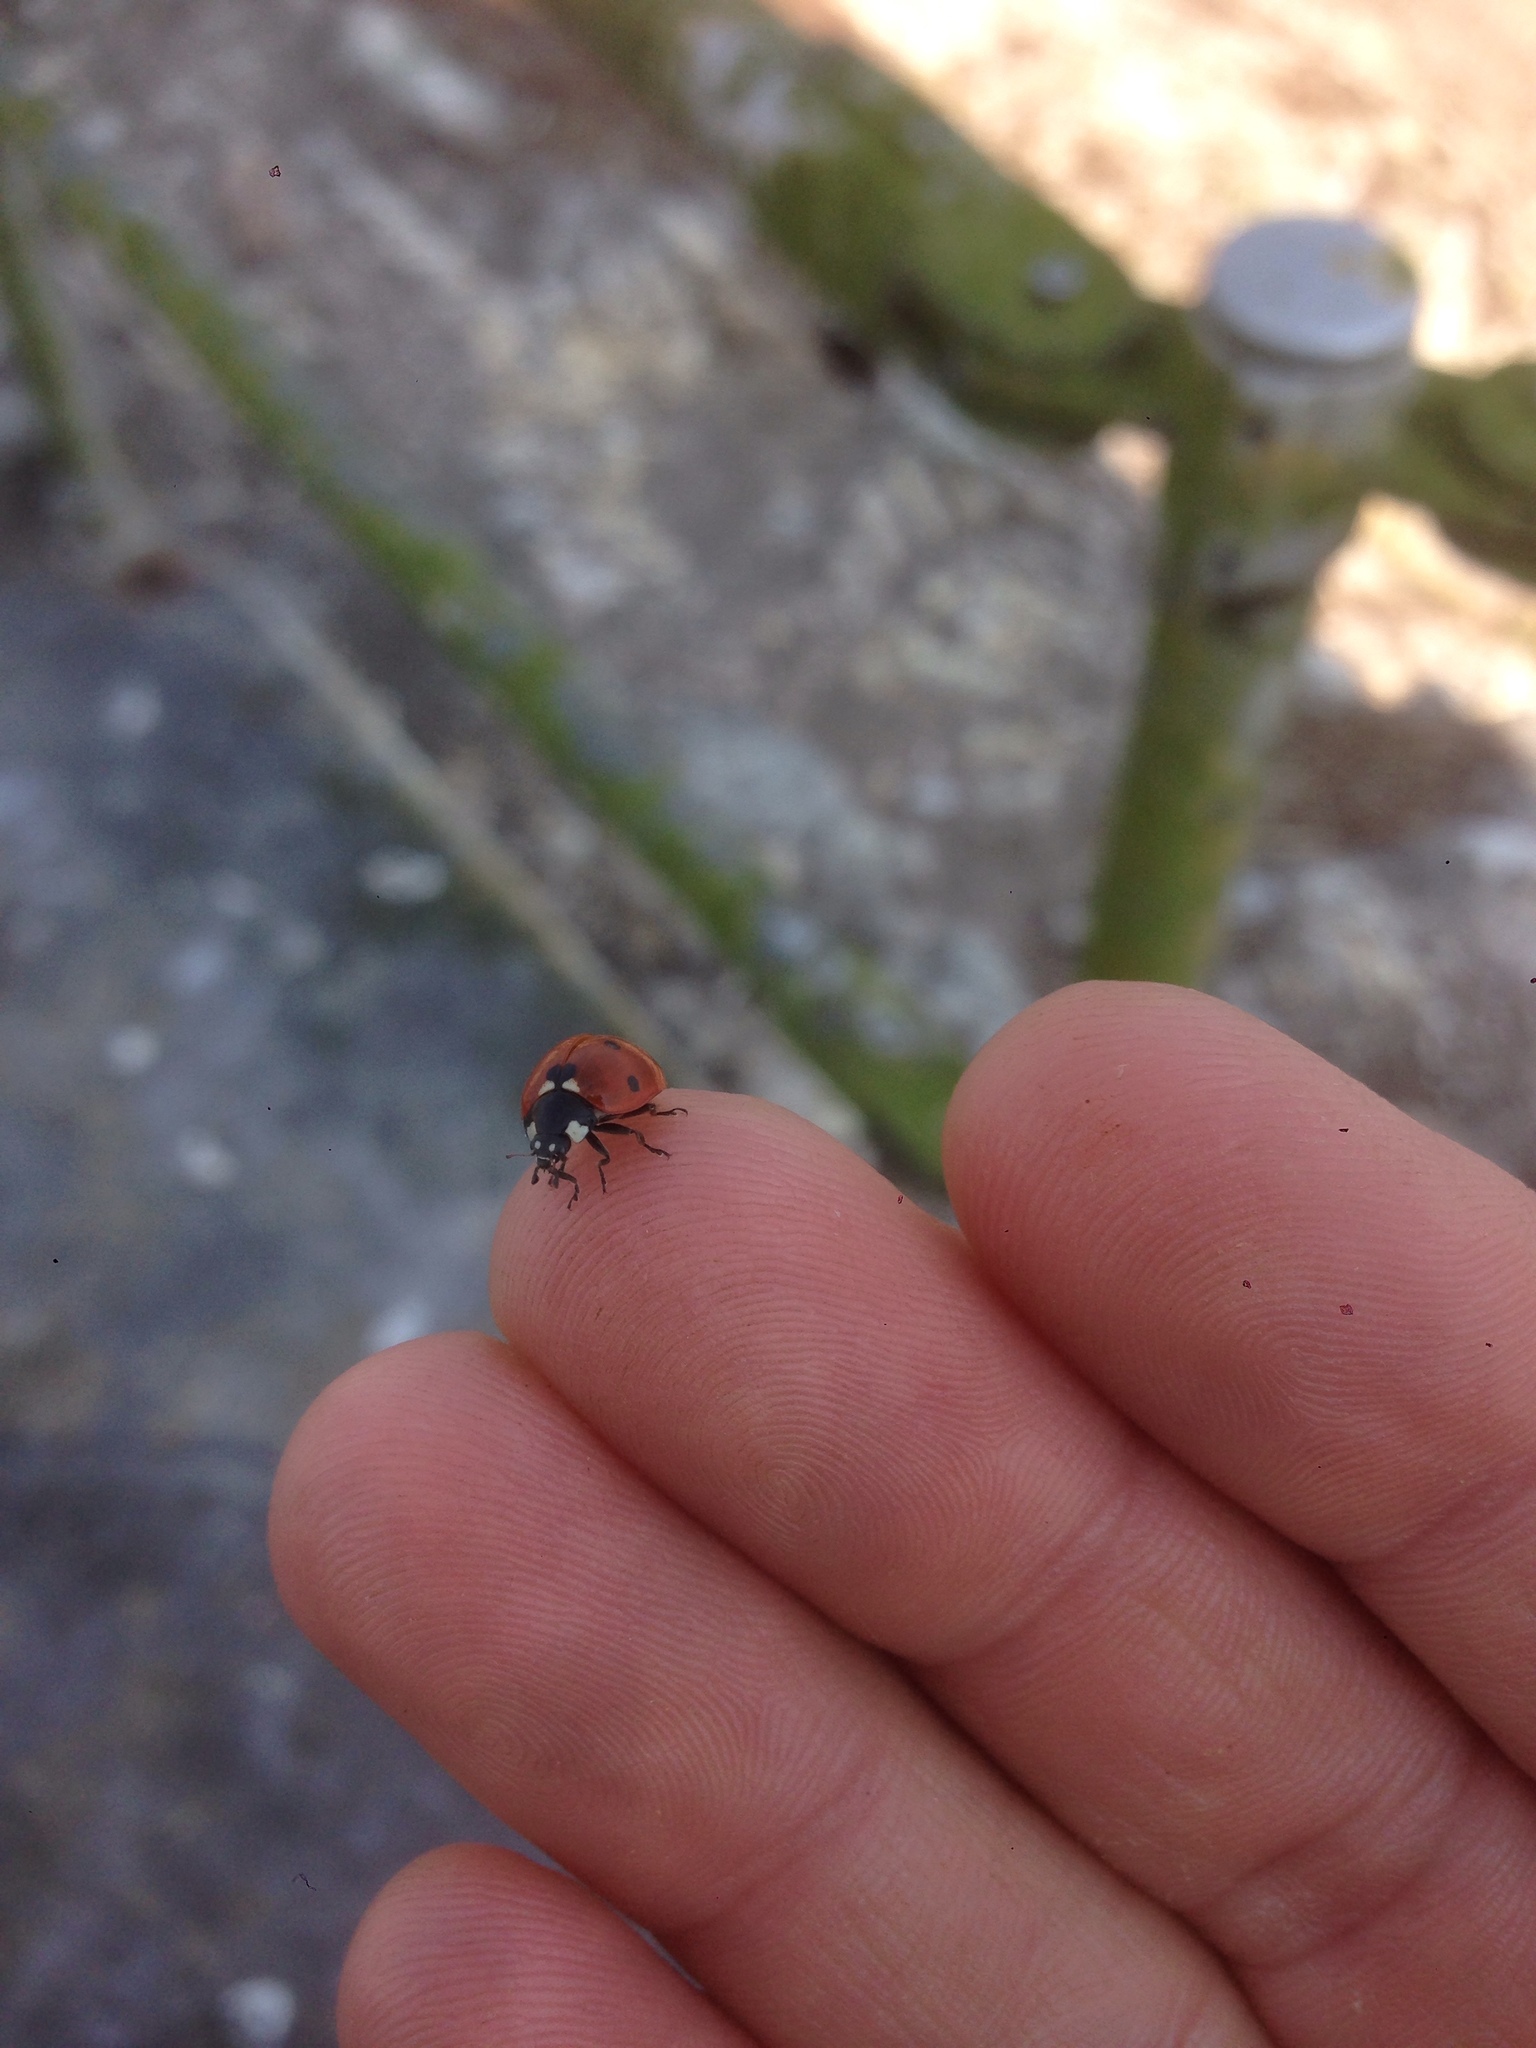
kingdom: Animalia
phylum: Arthropoda
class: Insecta
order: Coleoptera
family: Coccinellidae
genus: Coccinella
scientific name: Coccinella septempunctata
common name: Sevenspotted lady beetle
